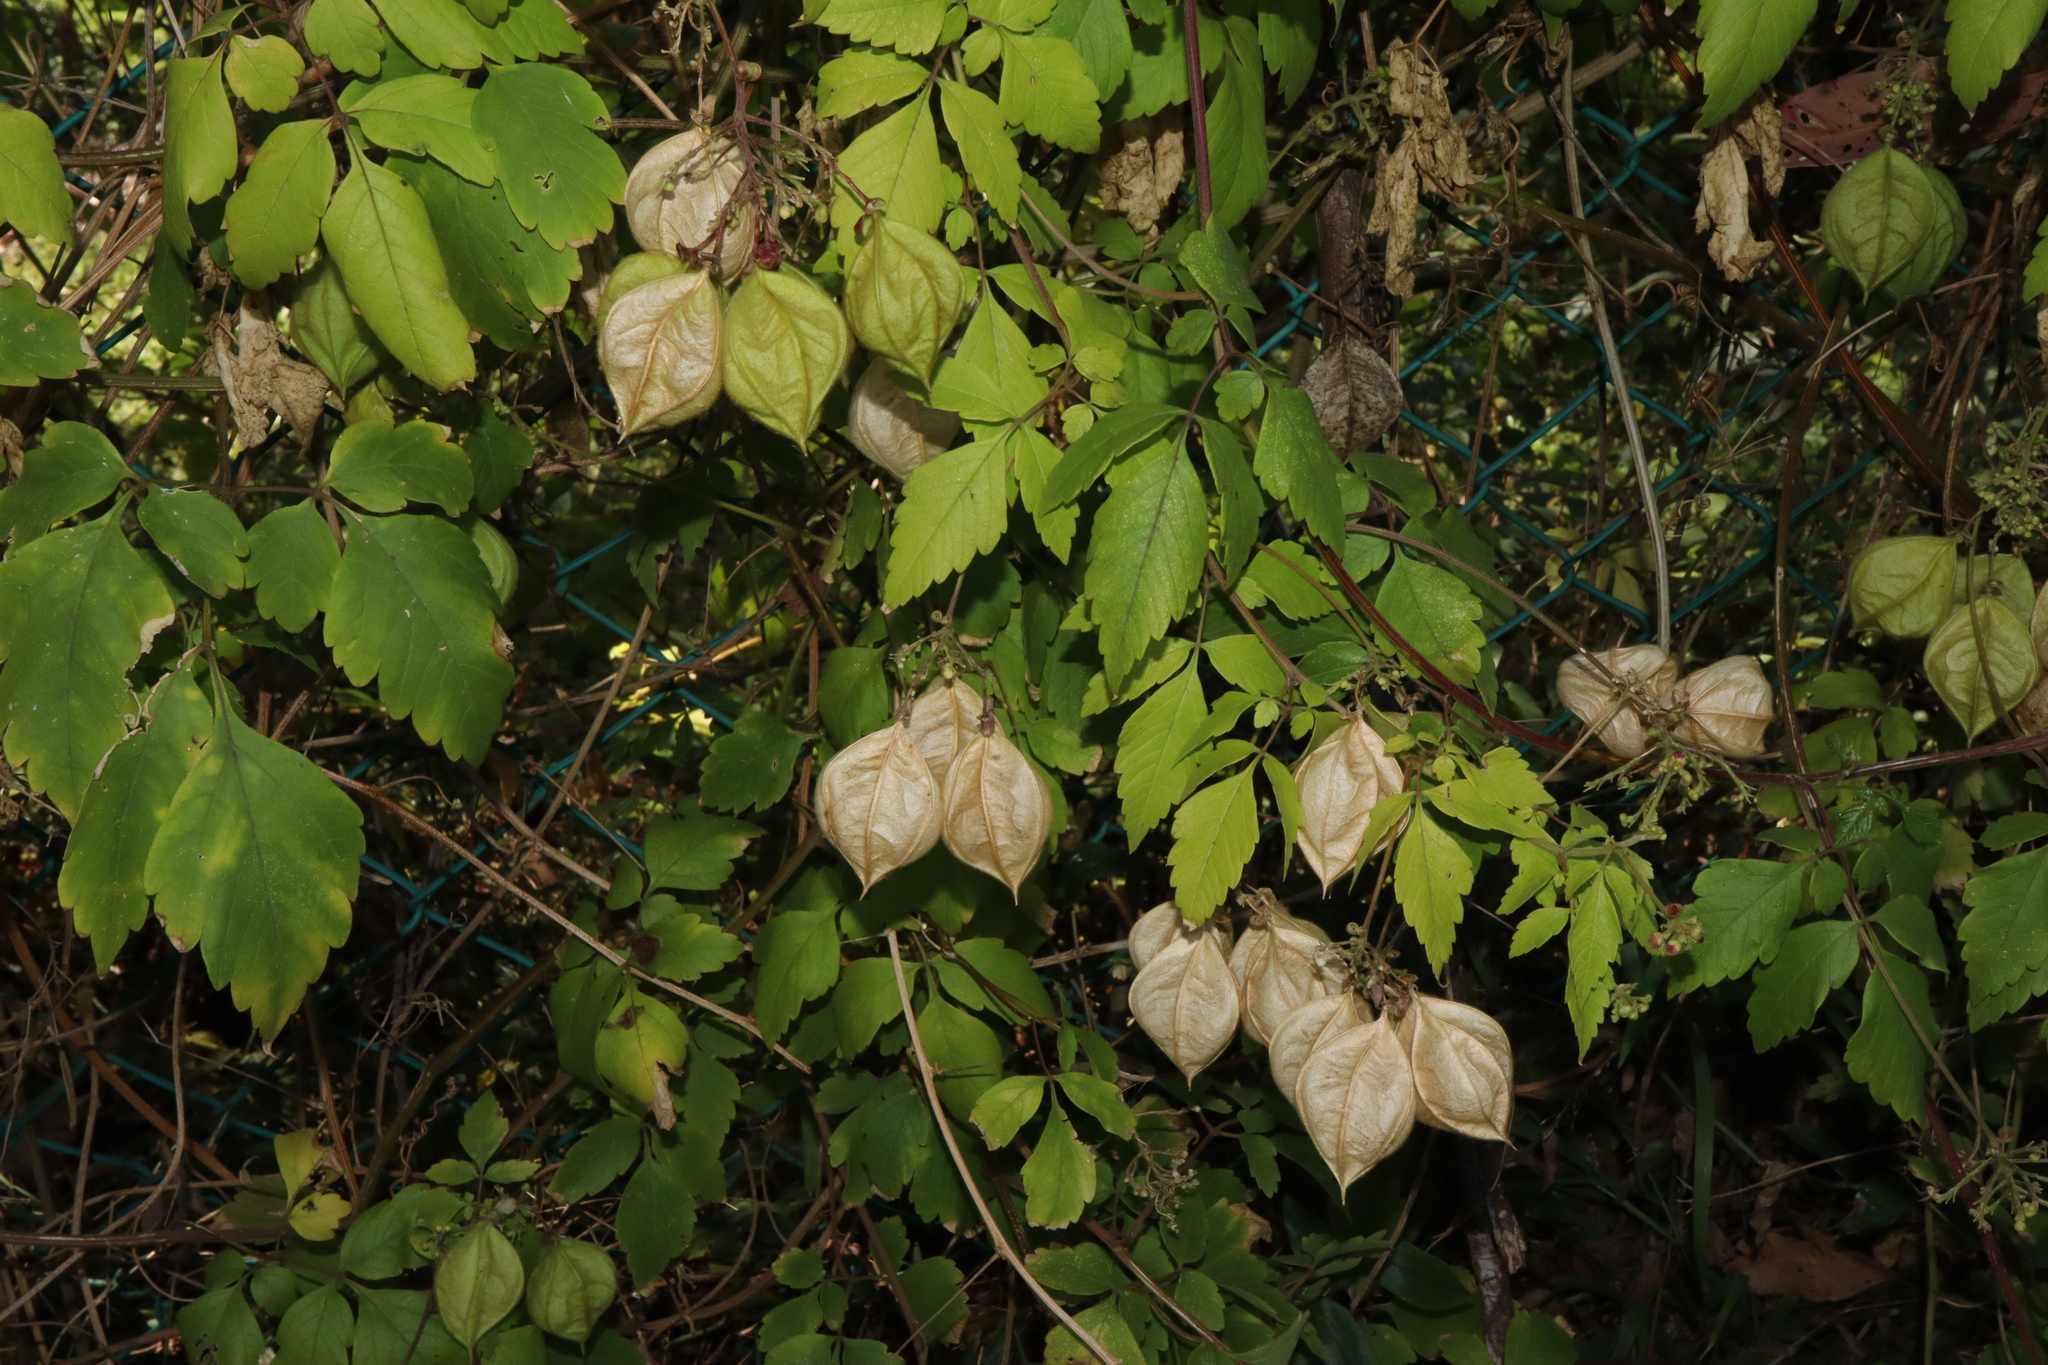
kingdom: Plantae
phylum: Tracheophyta
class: Magnoliopsida
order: Sapindales
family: Sapindaceae
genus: Cardiospermum
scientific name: Cardiospermum grandiflorum
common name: Balloon vine
